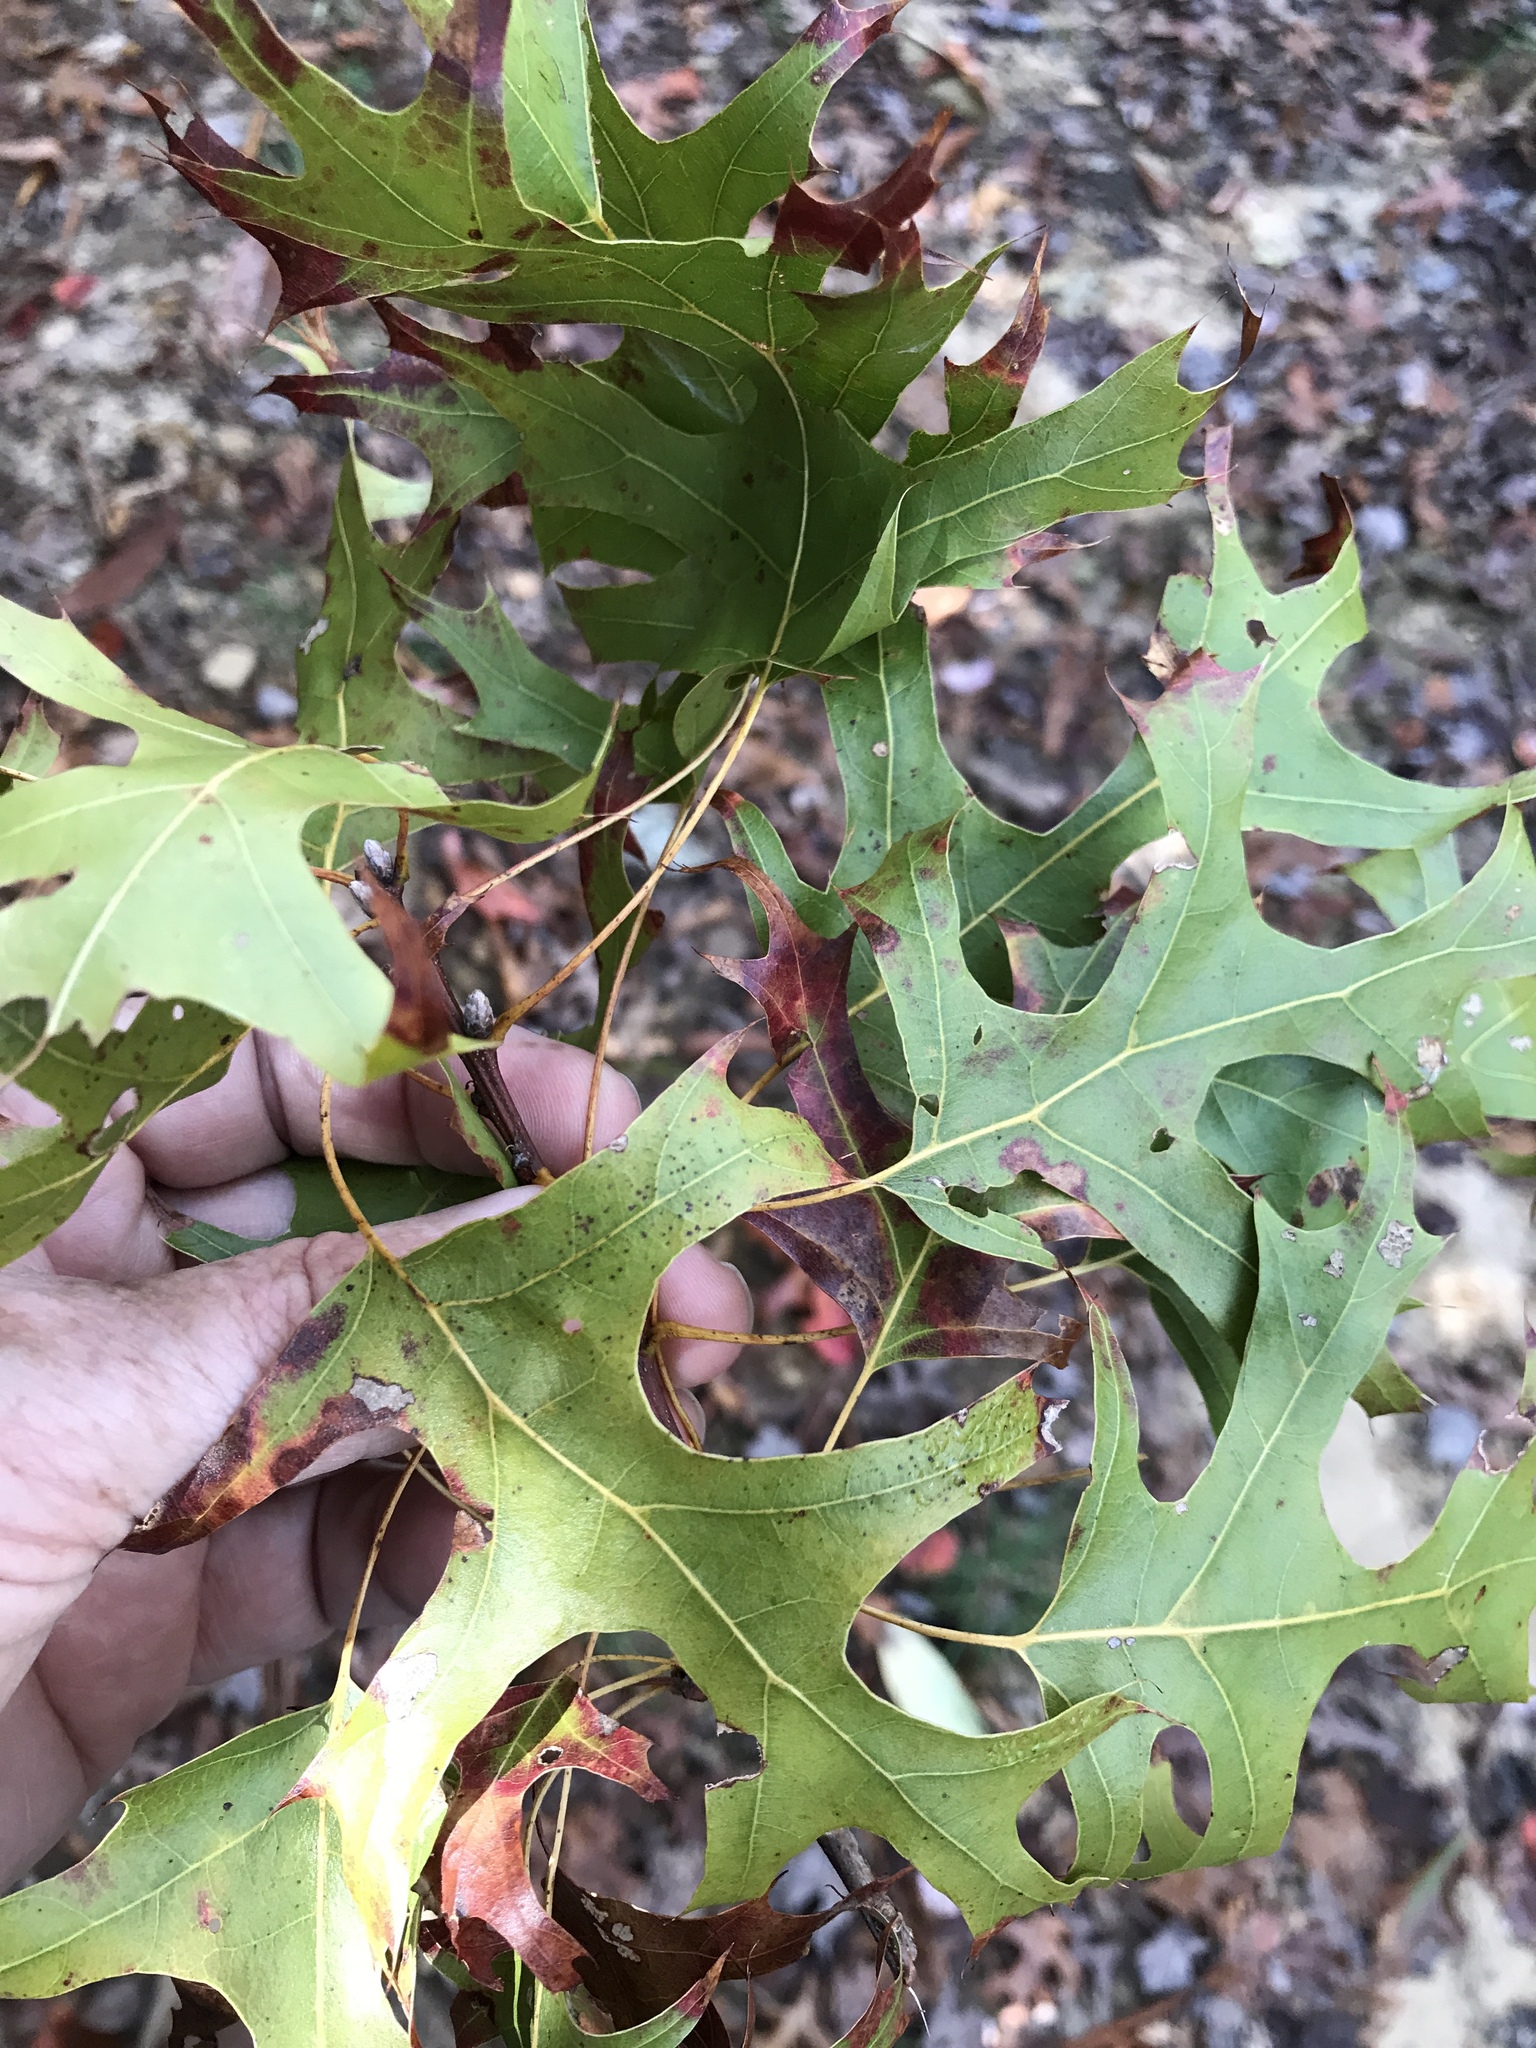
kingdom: Plantae
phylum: Tracheophyta
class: Magnoliopsida
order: Fagales
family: Fagaceae
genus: Quercus
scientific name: Quercus coccinea
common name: Scarlet oak
